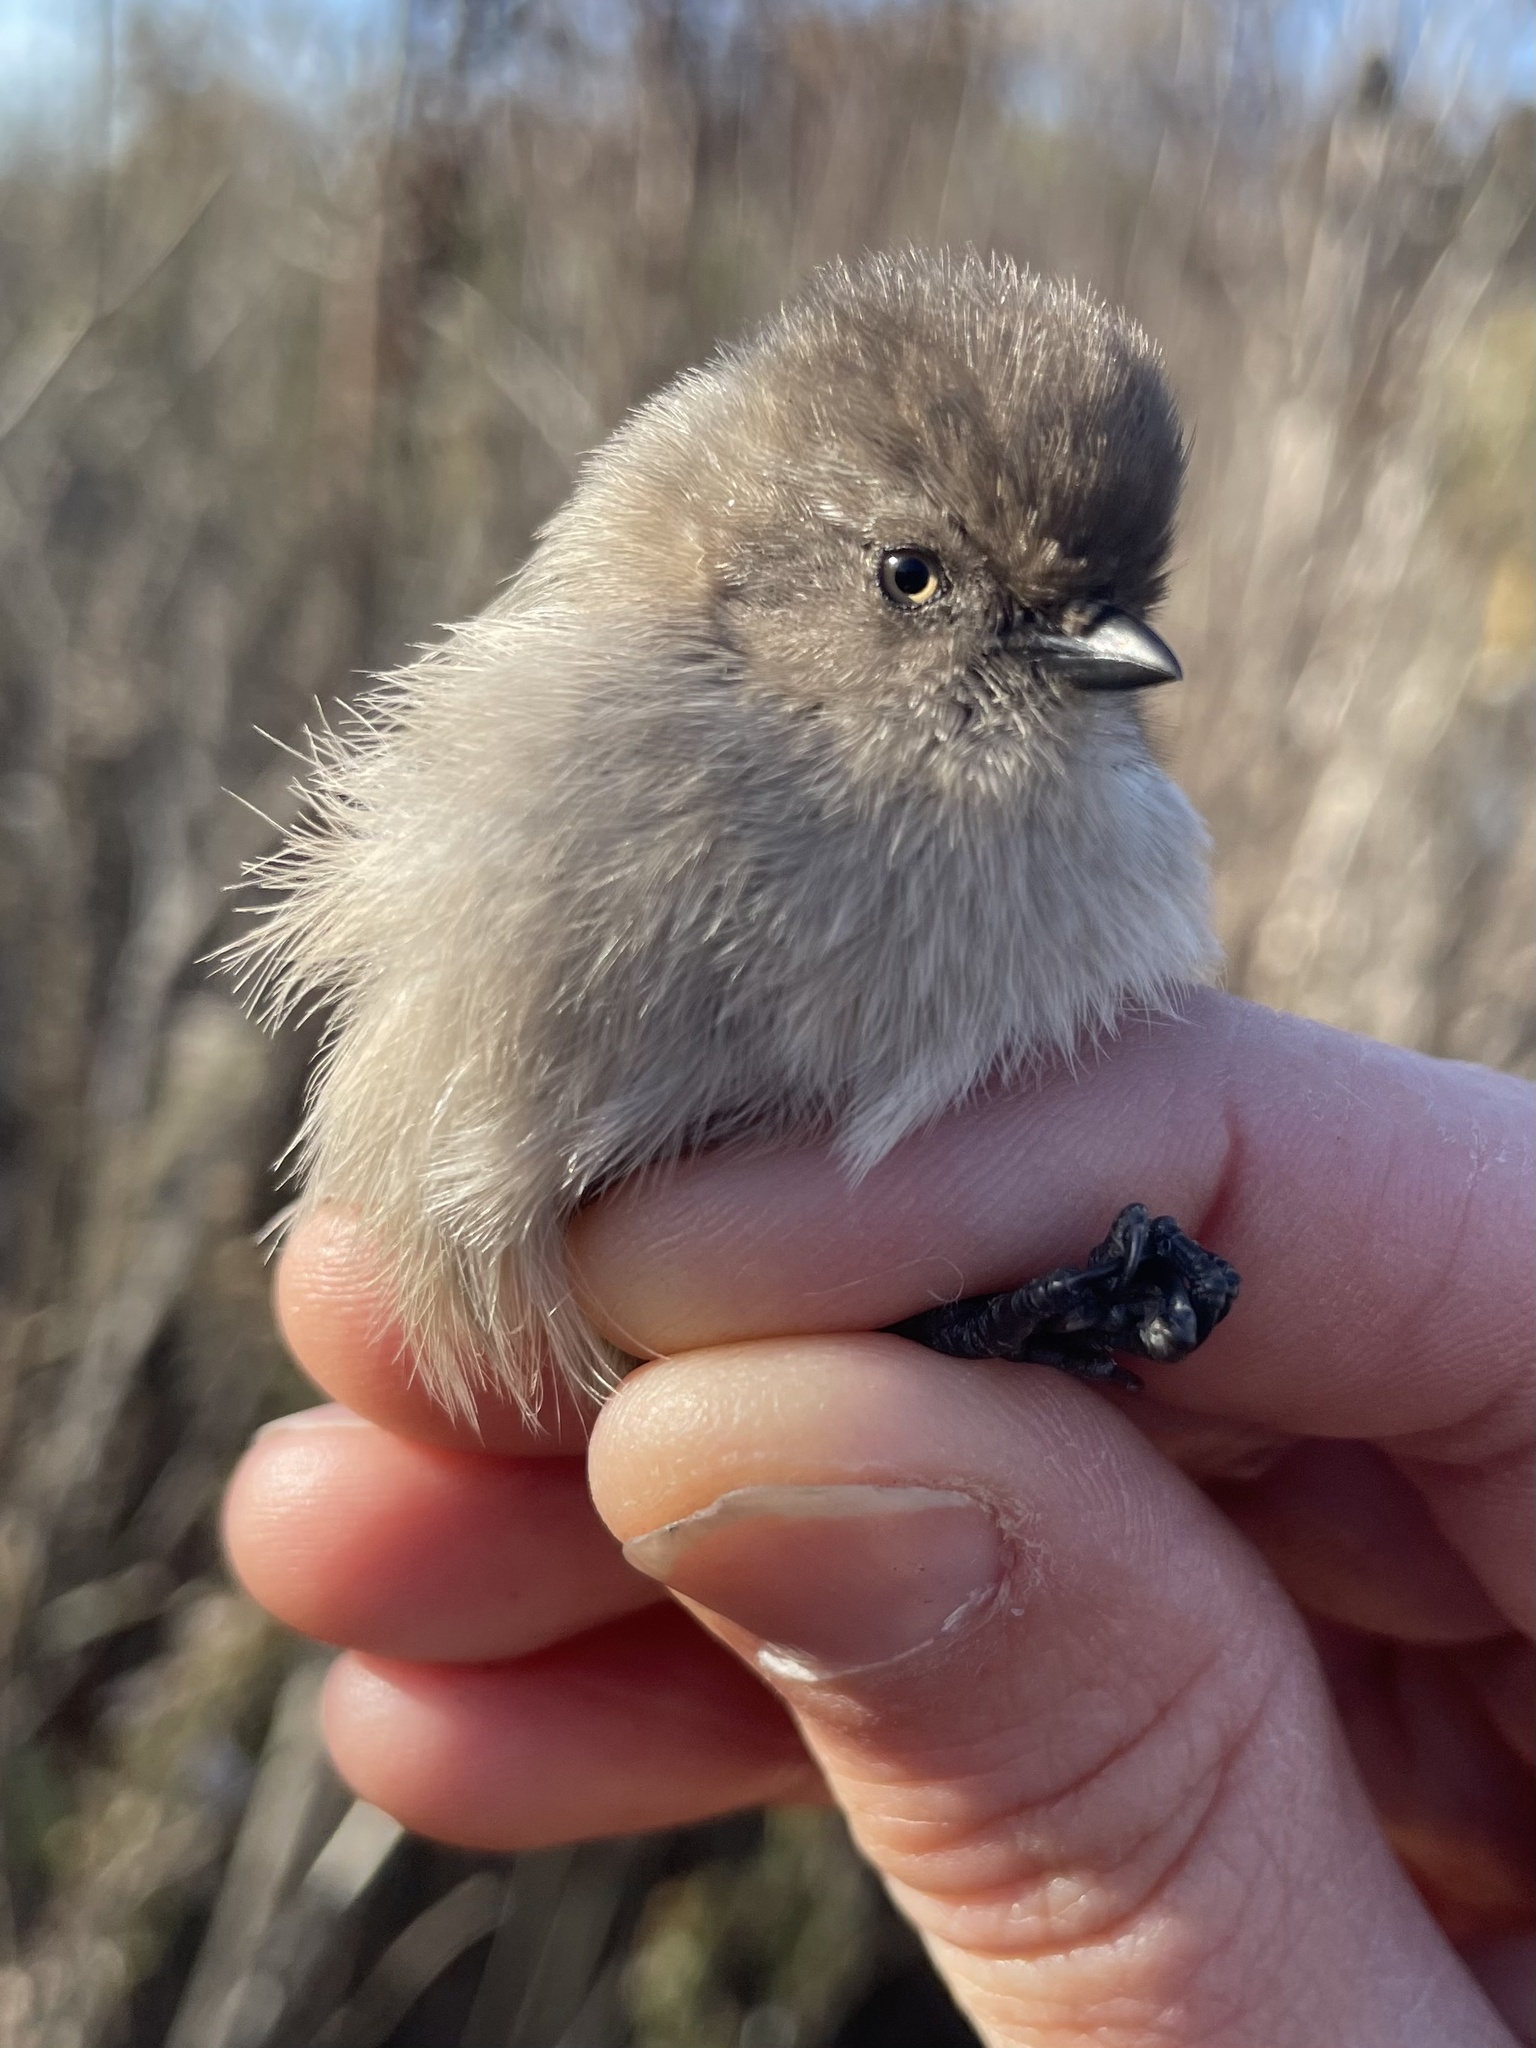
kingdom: Animalia
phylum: Chordata
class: Aves
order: Passeriformes
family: Aegithalidae
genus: Psaltriparus
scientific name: Psaltriparus minimus
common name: American bushtit
